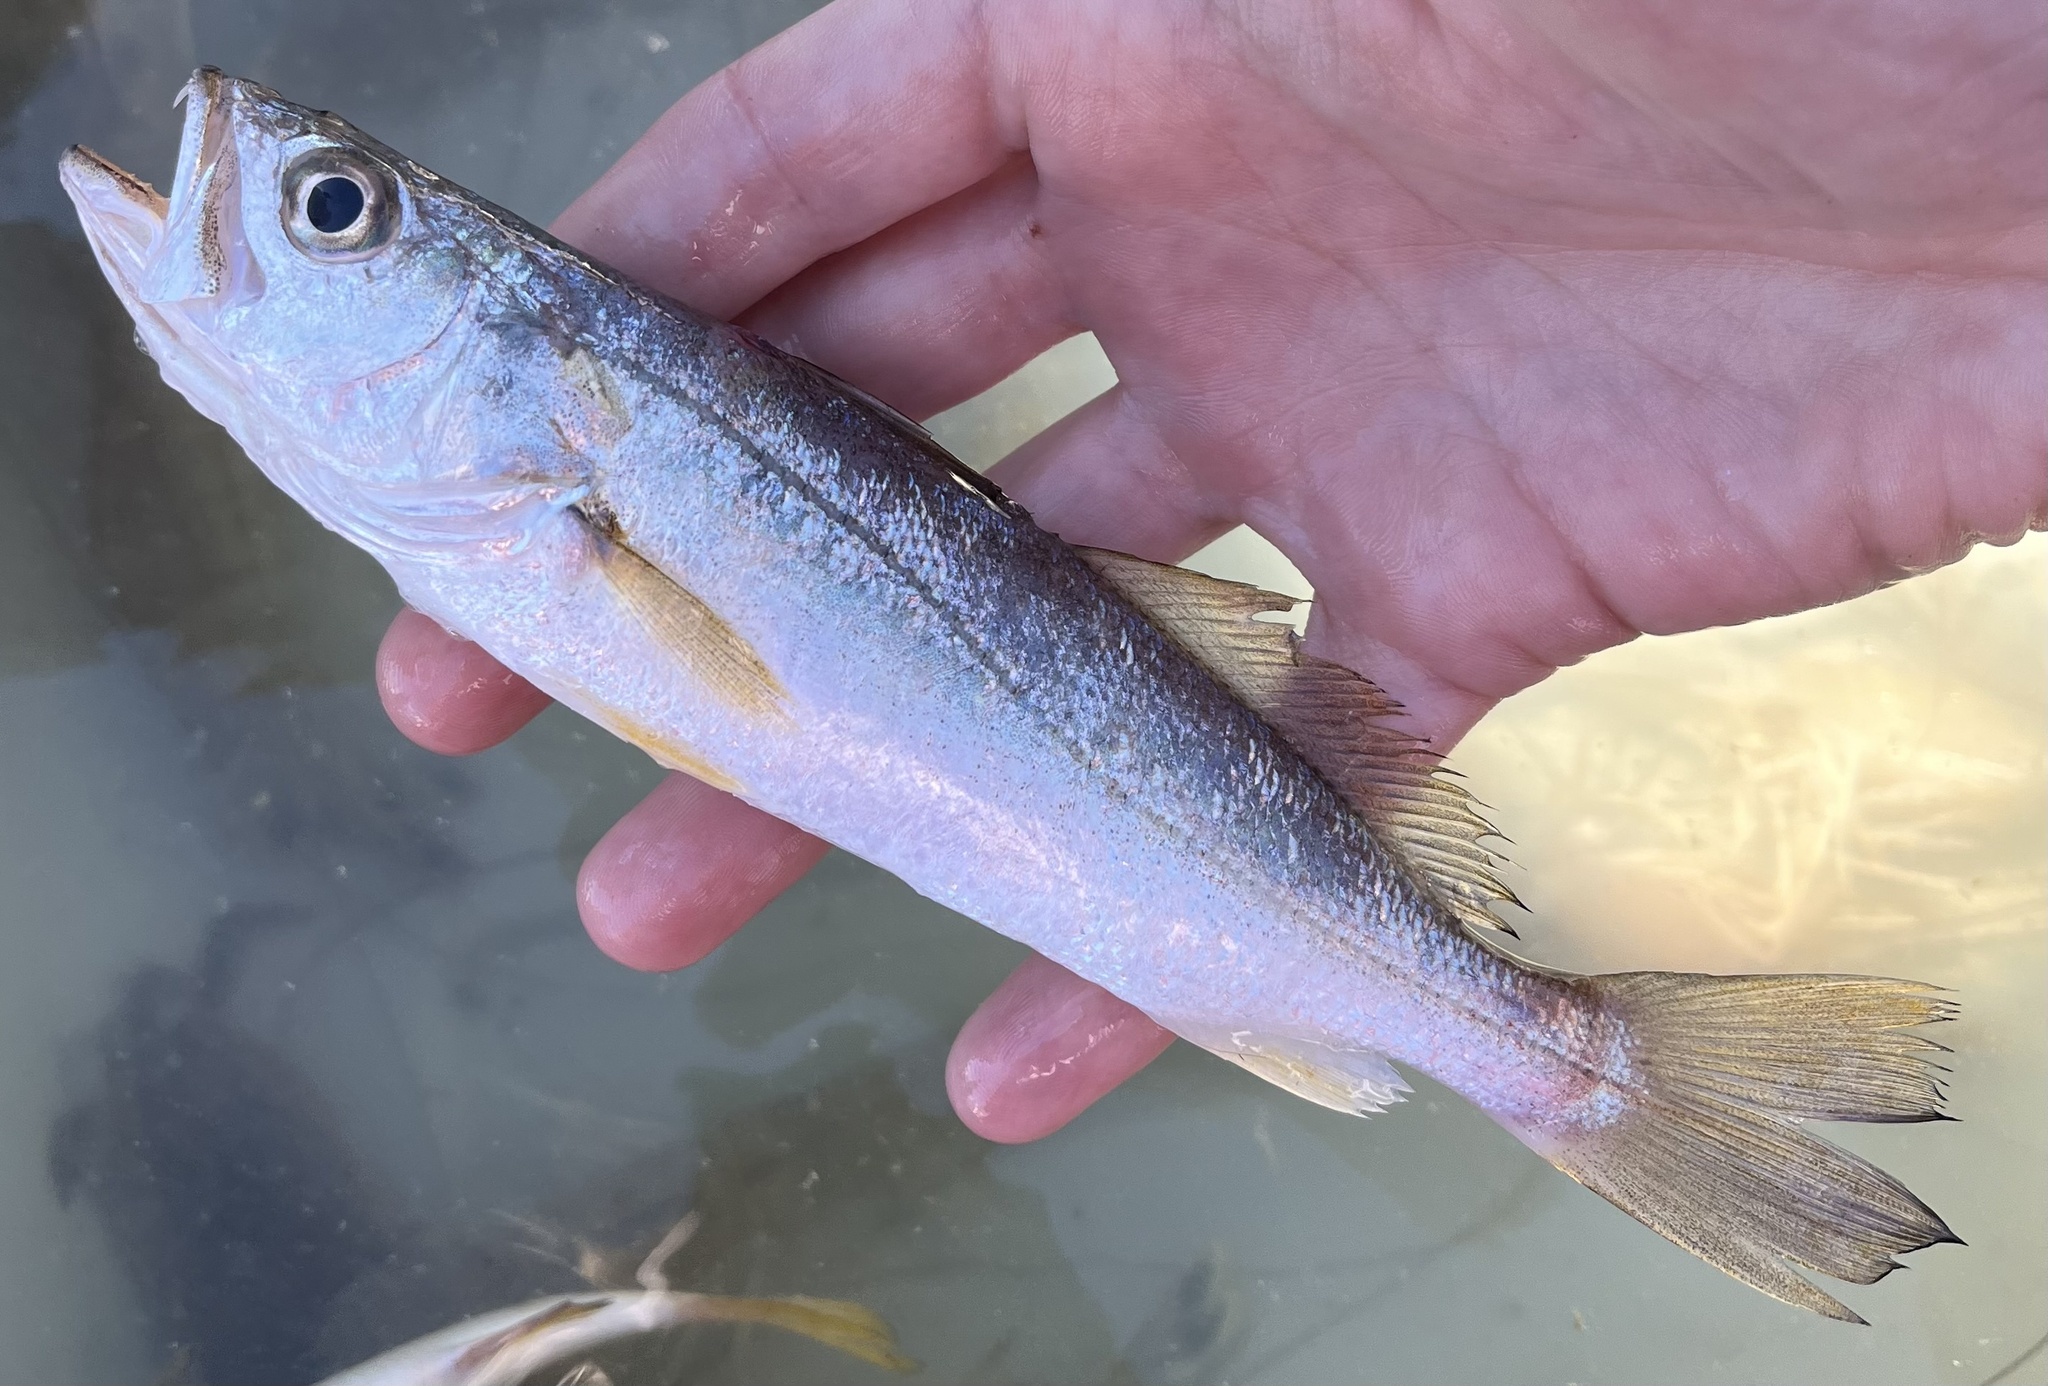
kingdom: Animalia
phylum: Chordata
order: Perciformes
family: Sciaenidae
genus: Cynoscion
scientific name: Cynoscion arenarius
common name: Sand seatrout
